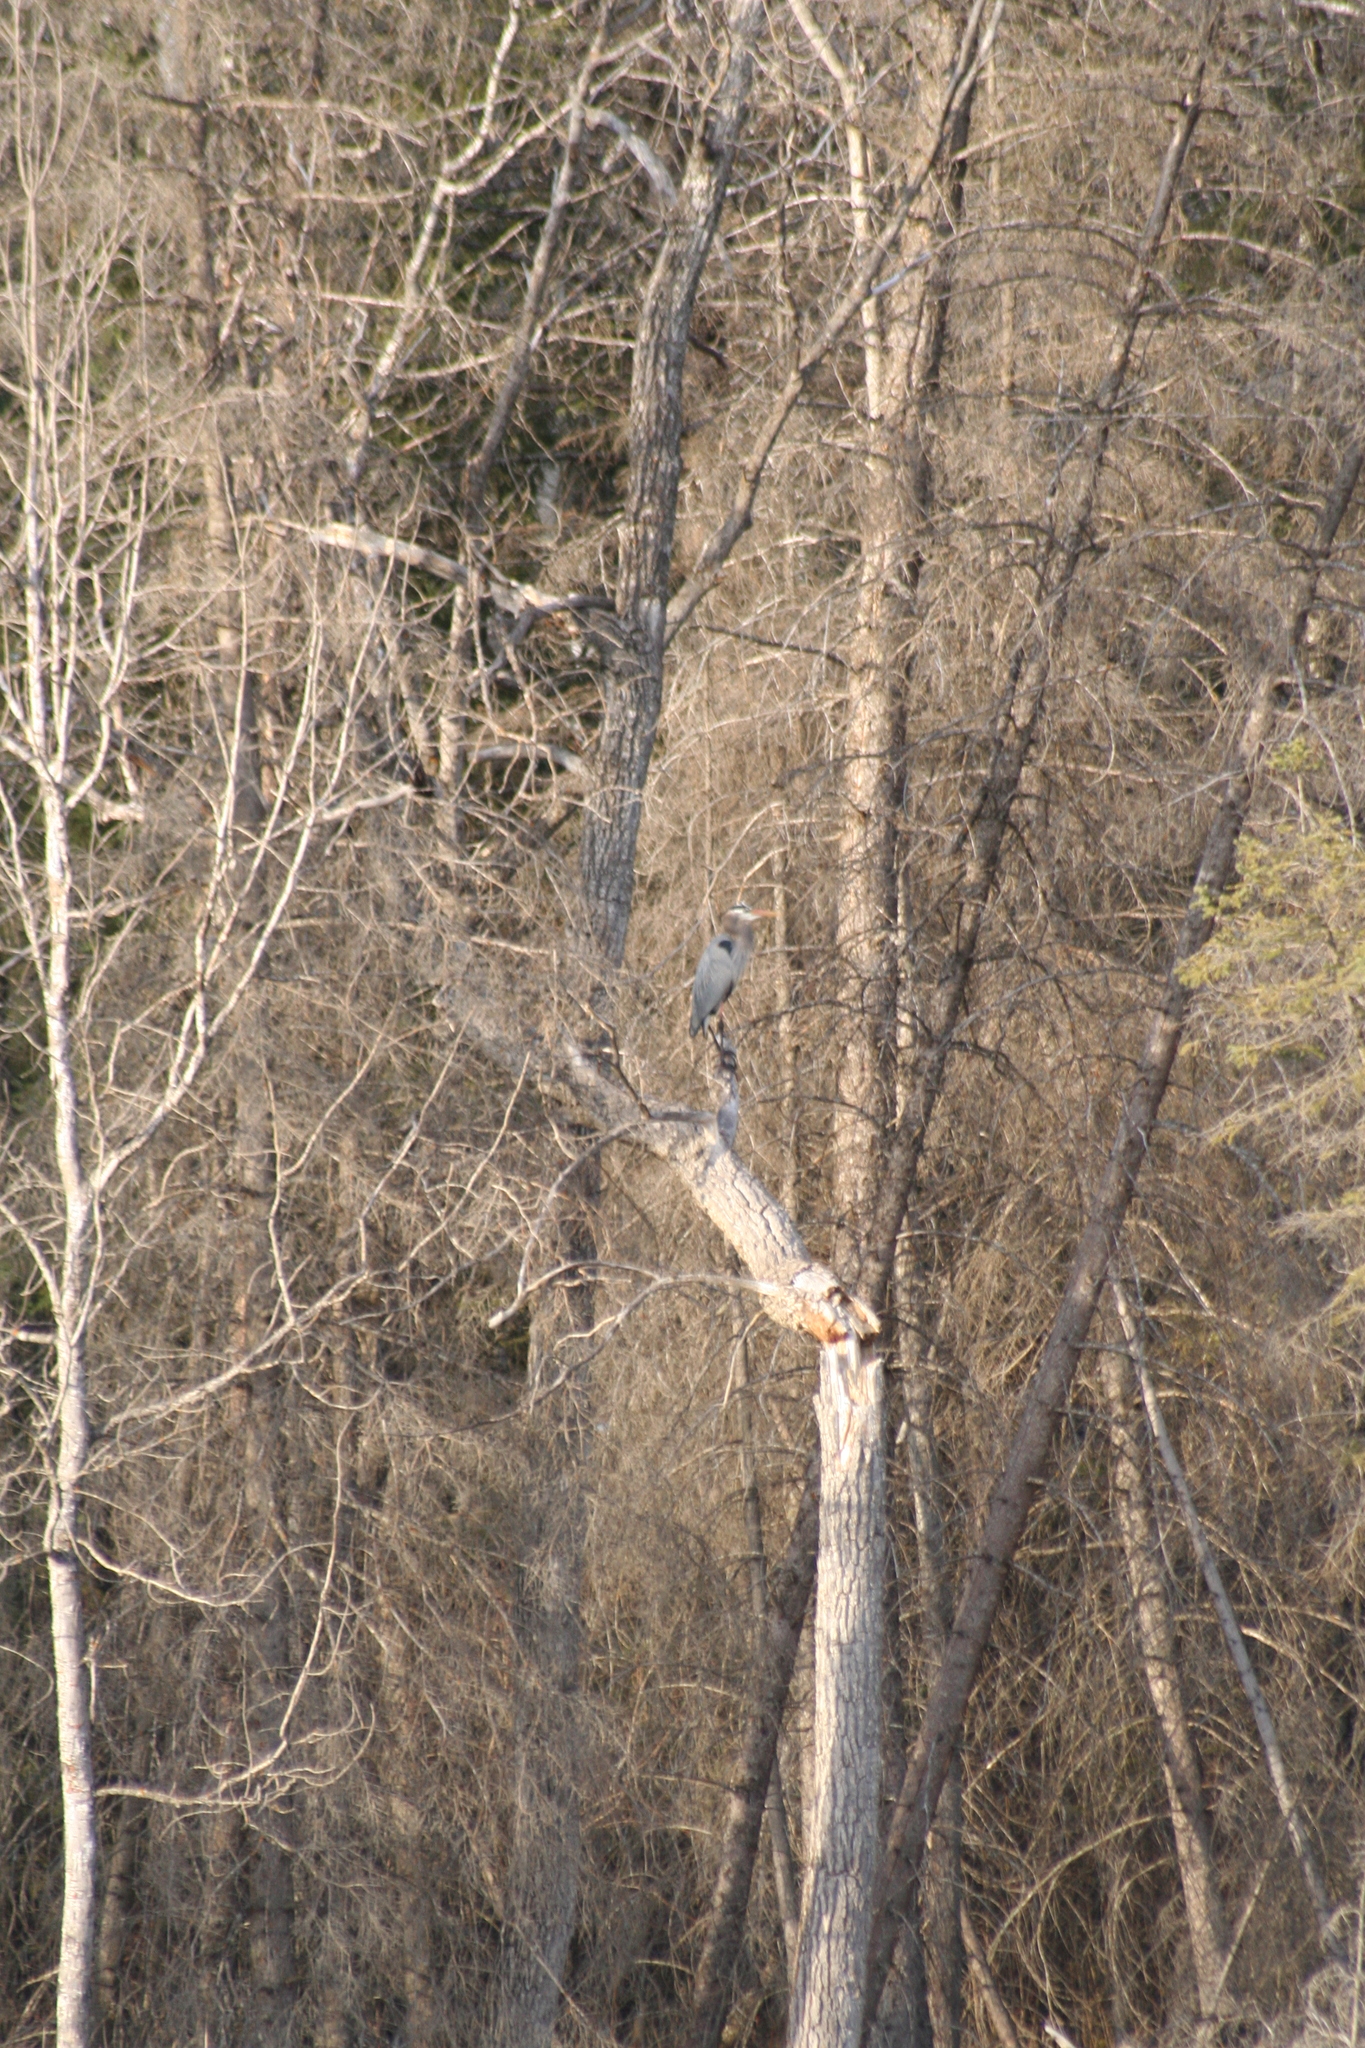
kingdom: Animalia
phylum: Chordata
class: Aves
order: Pelecaniformes
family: Ardeidae
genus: Ardea
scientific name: Ardea herodias
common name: Great blue heron
